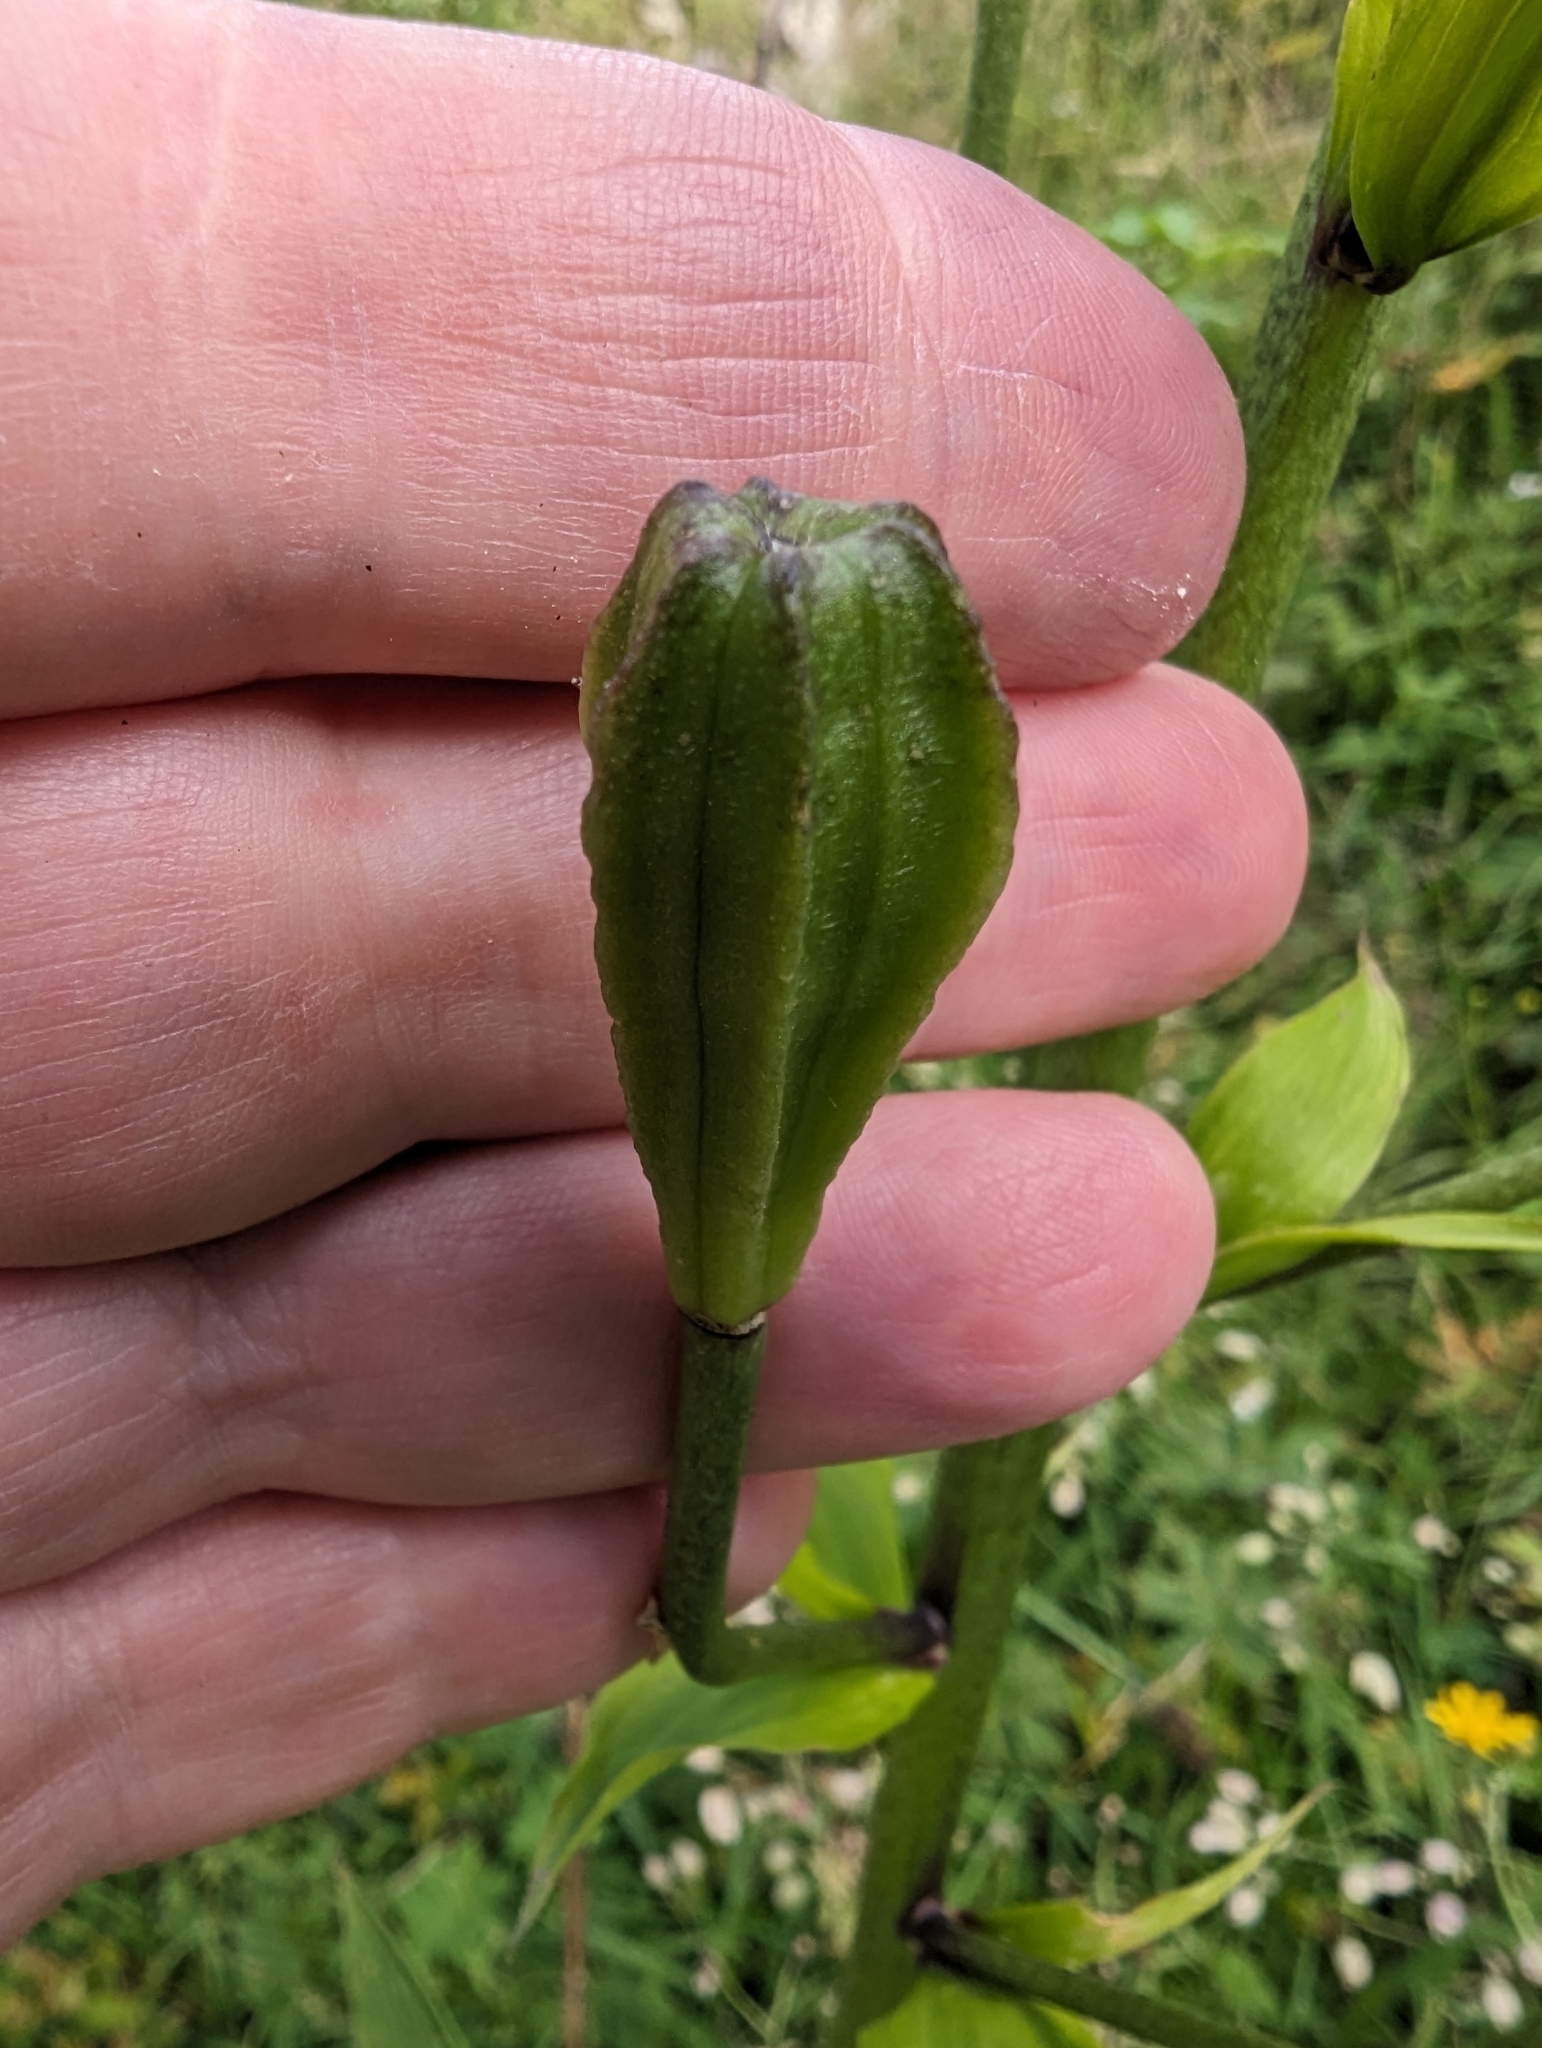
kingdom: Plantae
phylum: Tracheophyta
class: Liliopsida
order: Liliales
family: Liliaceae
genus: Lilium
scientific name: Lilium martagon
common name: Martagon lily
